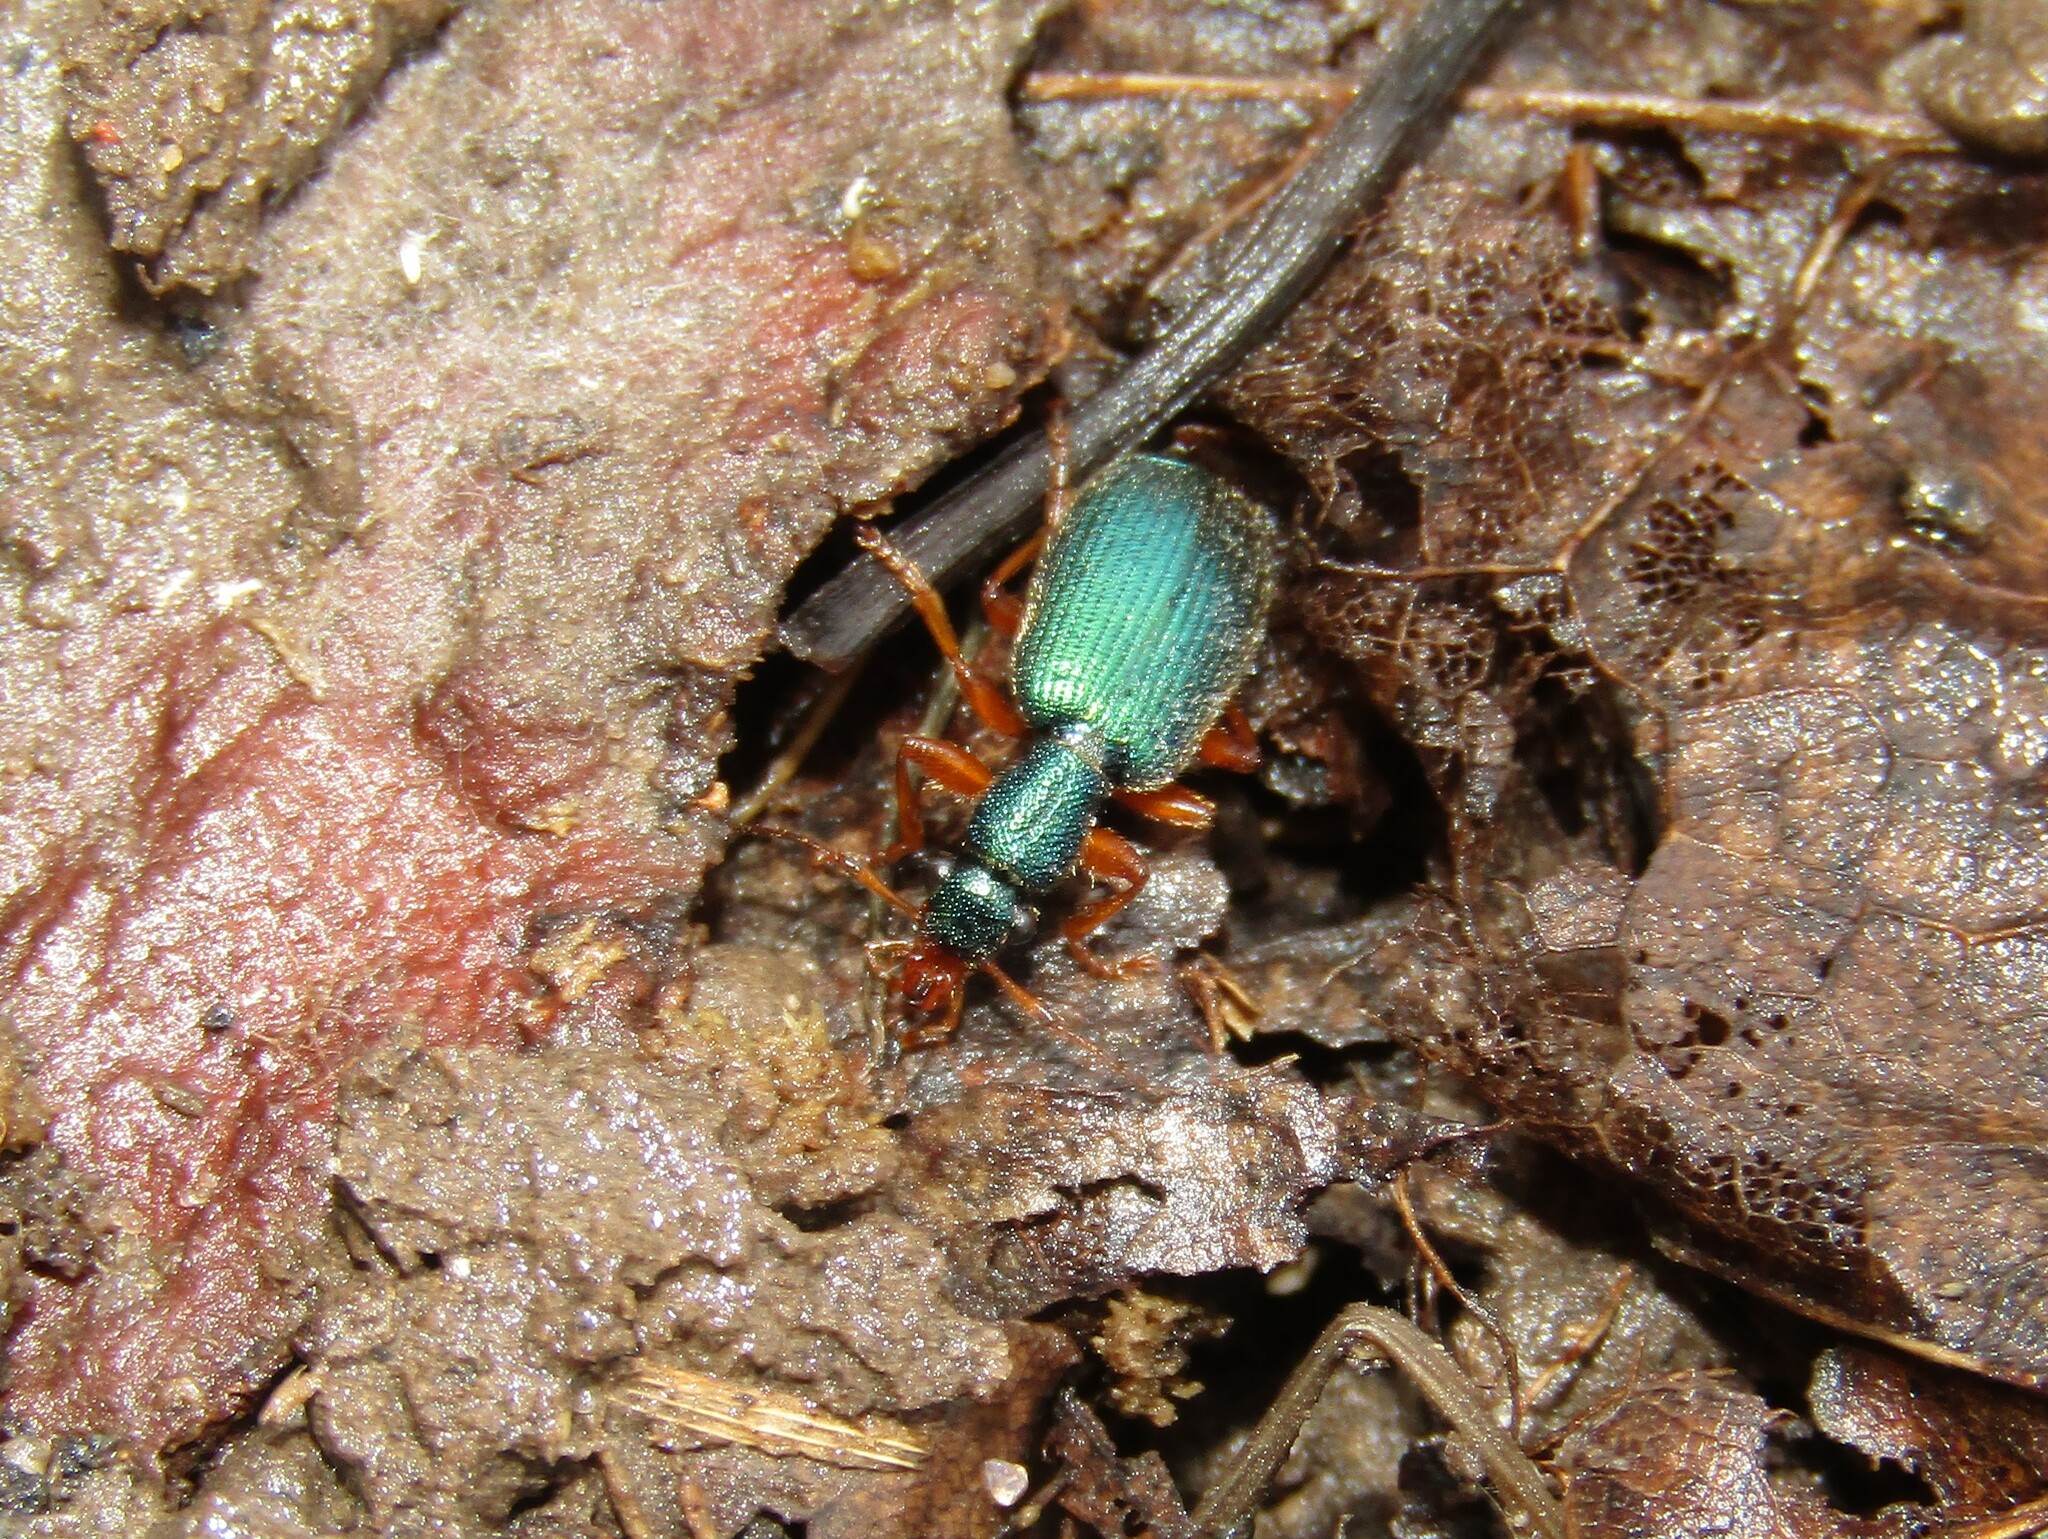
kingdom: Animalia
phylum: Arthropoda
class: Insecta
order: Coleoptera
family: Carabidae
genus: Drypta
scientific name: Drypta dentata
